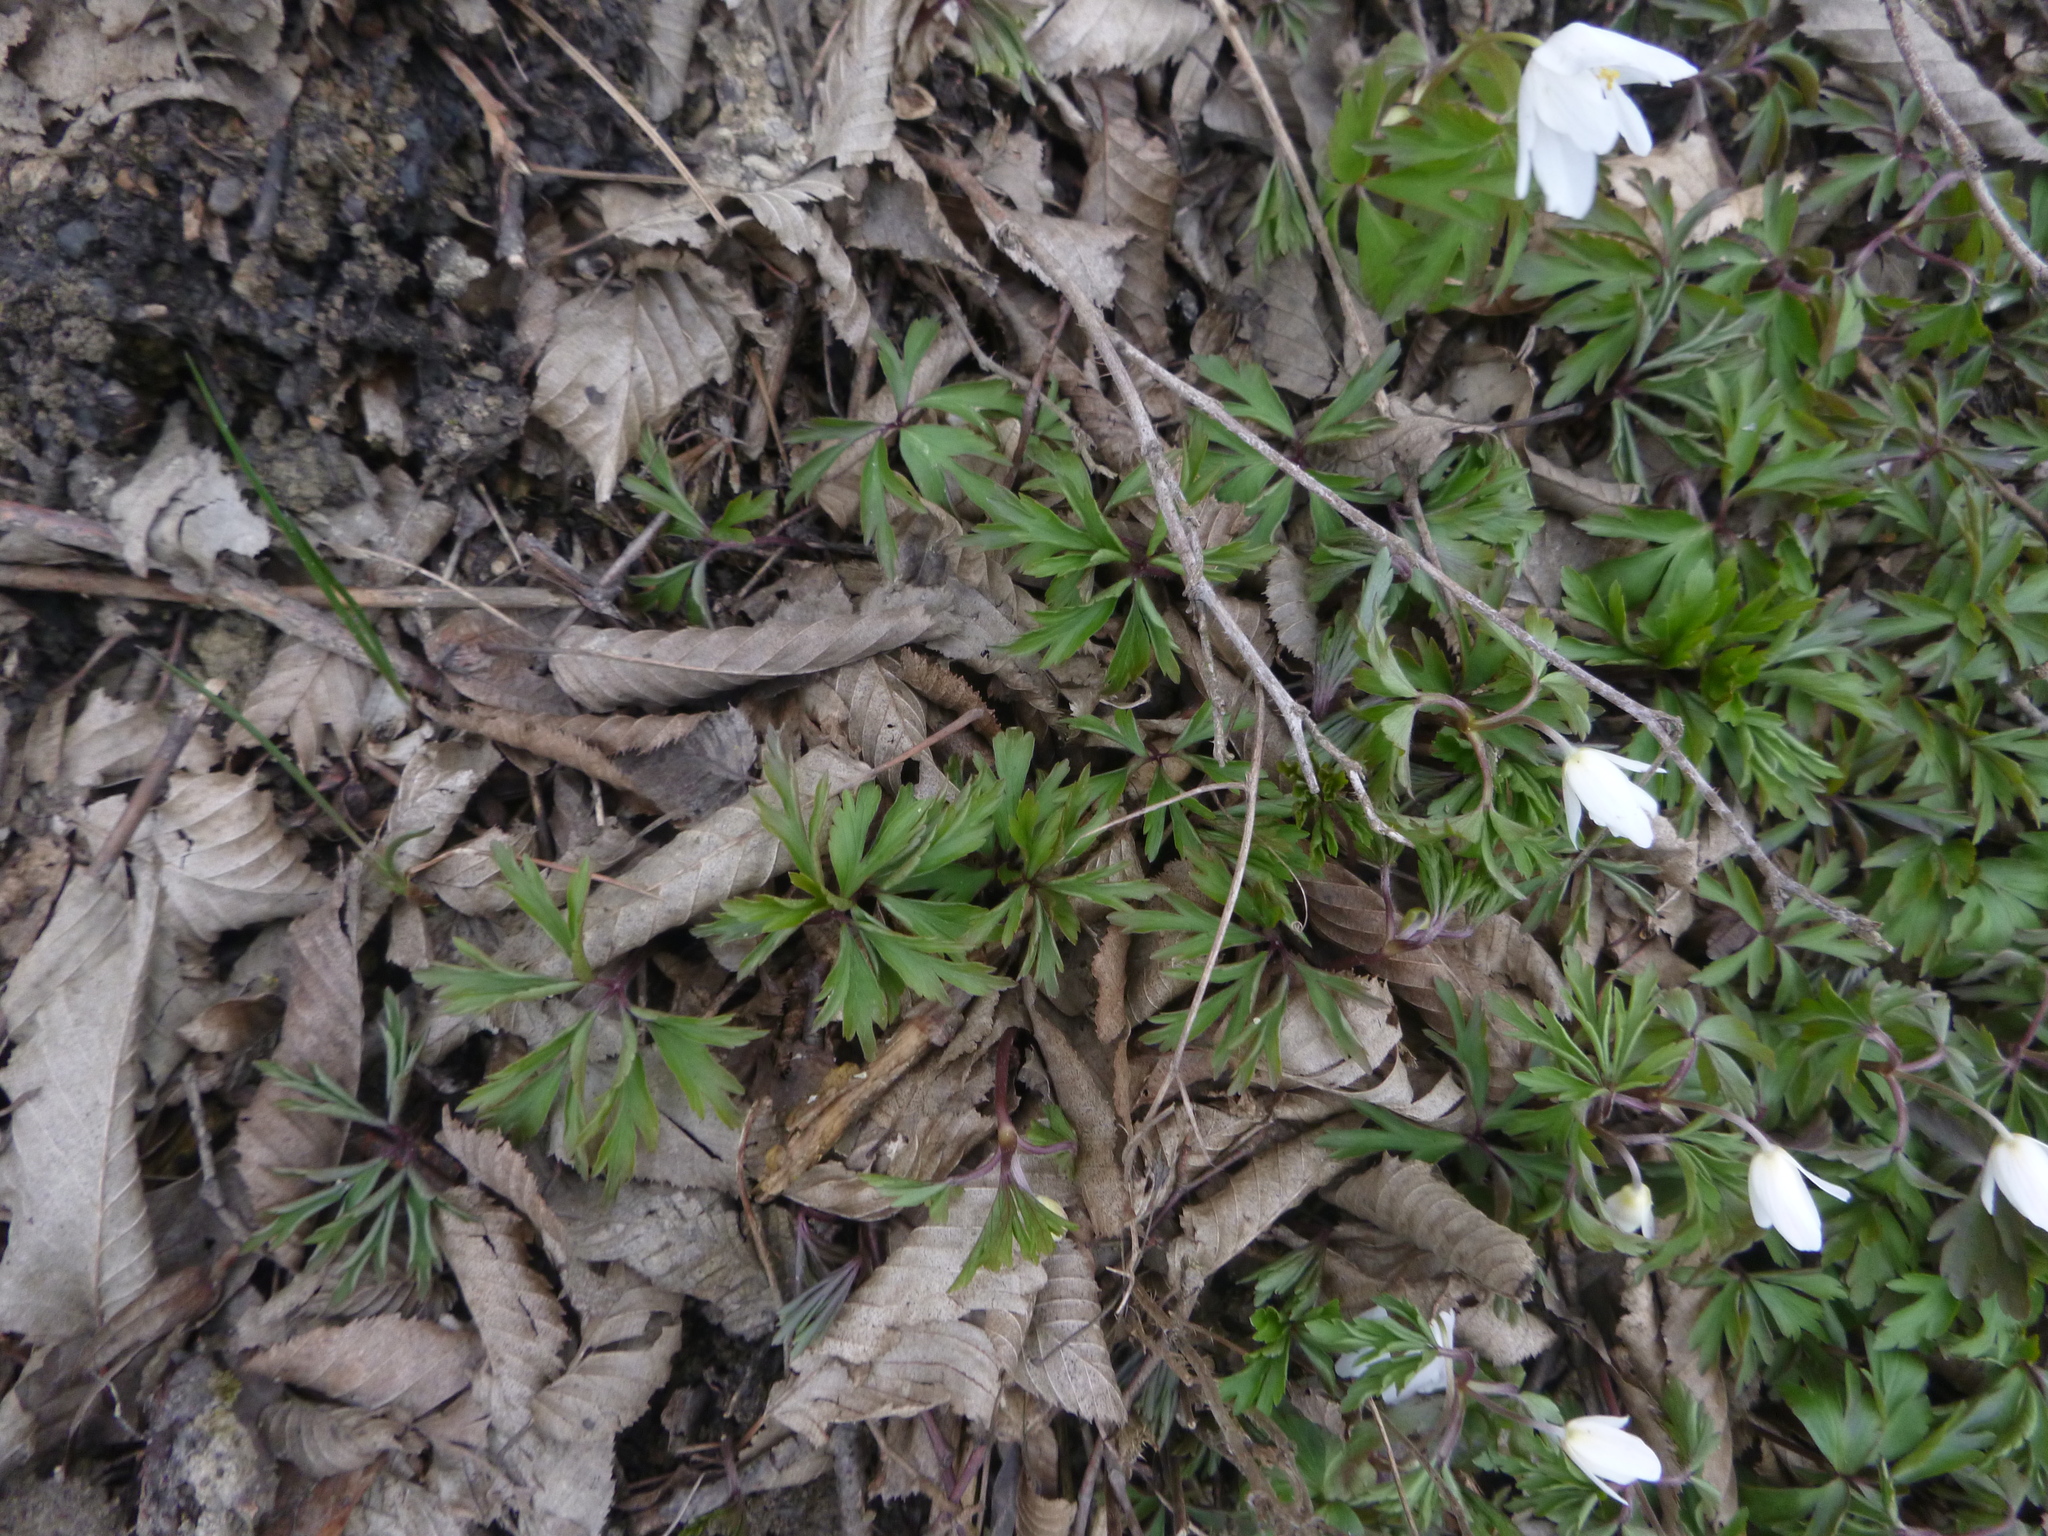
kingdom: Plantae
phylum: Tracheophyta
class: Magnoliopsida
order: Ranunculales
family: Ranunculaceae
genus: Anemone
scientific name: Anemone nemorosa
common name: Wood anemone
